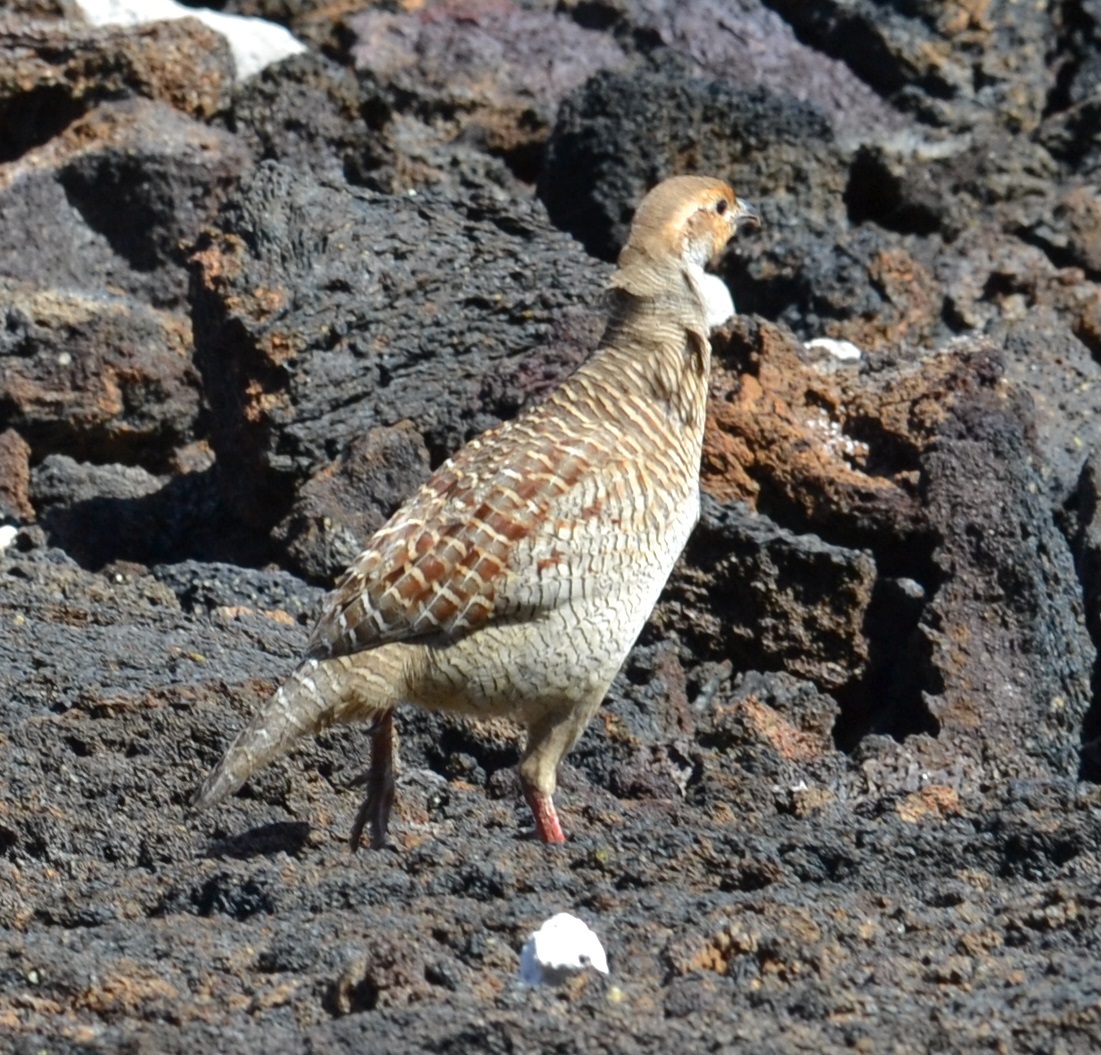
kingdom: Animalia
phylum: Chordata
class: Aves
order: Galliformes
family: Phasianidae
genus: Ortygornis
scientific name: Ortygornis pondicerianus
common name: Grey francolin
